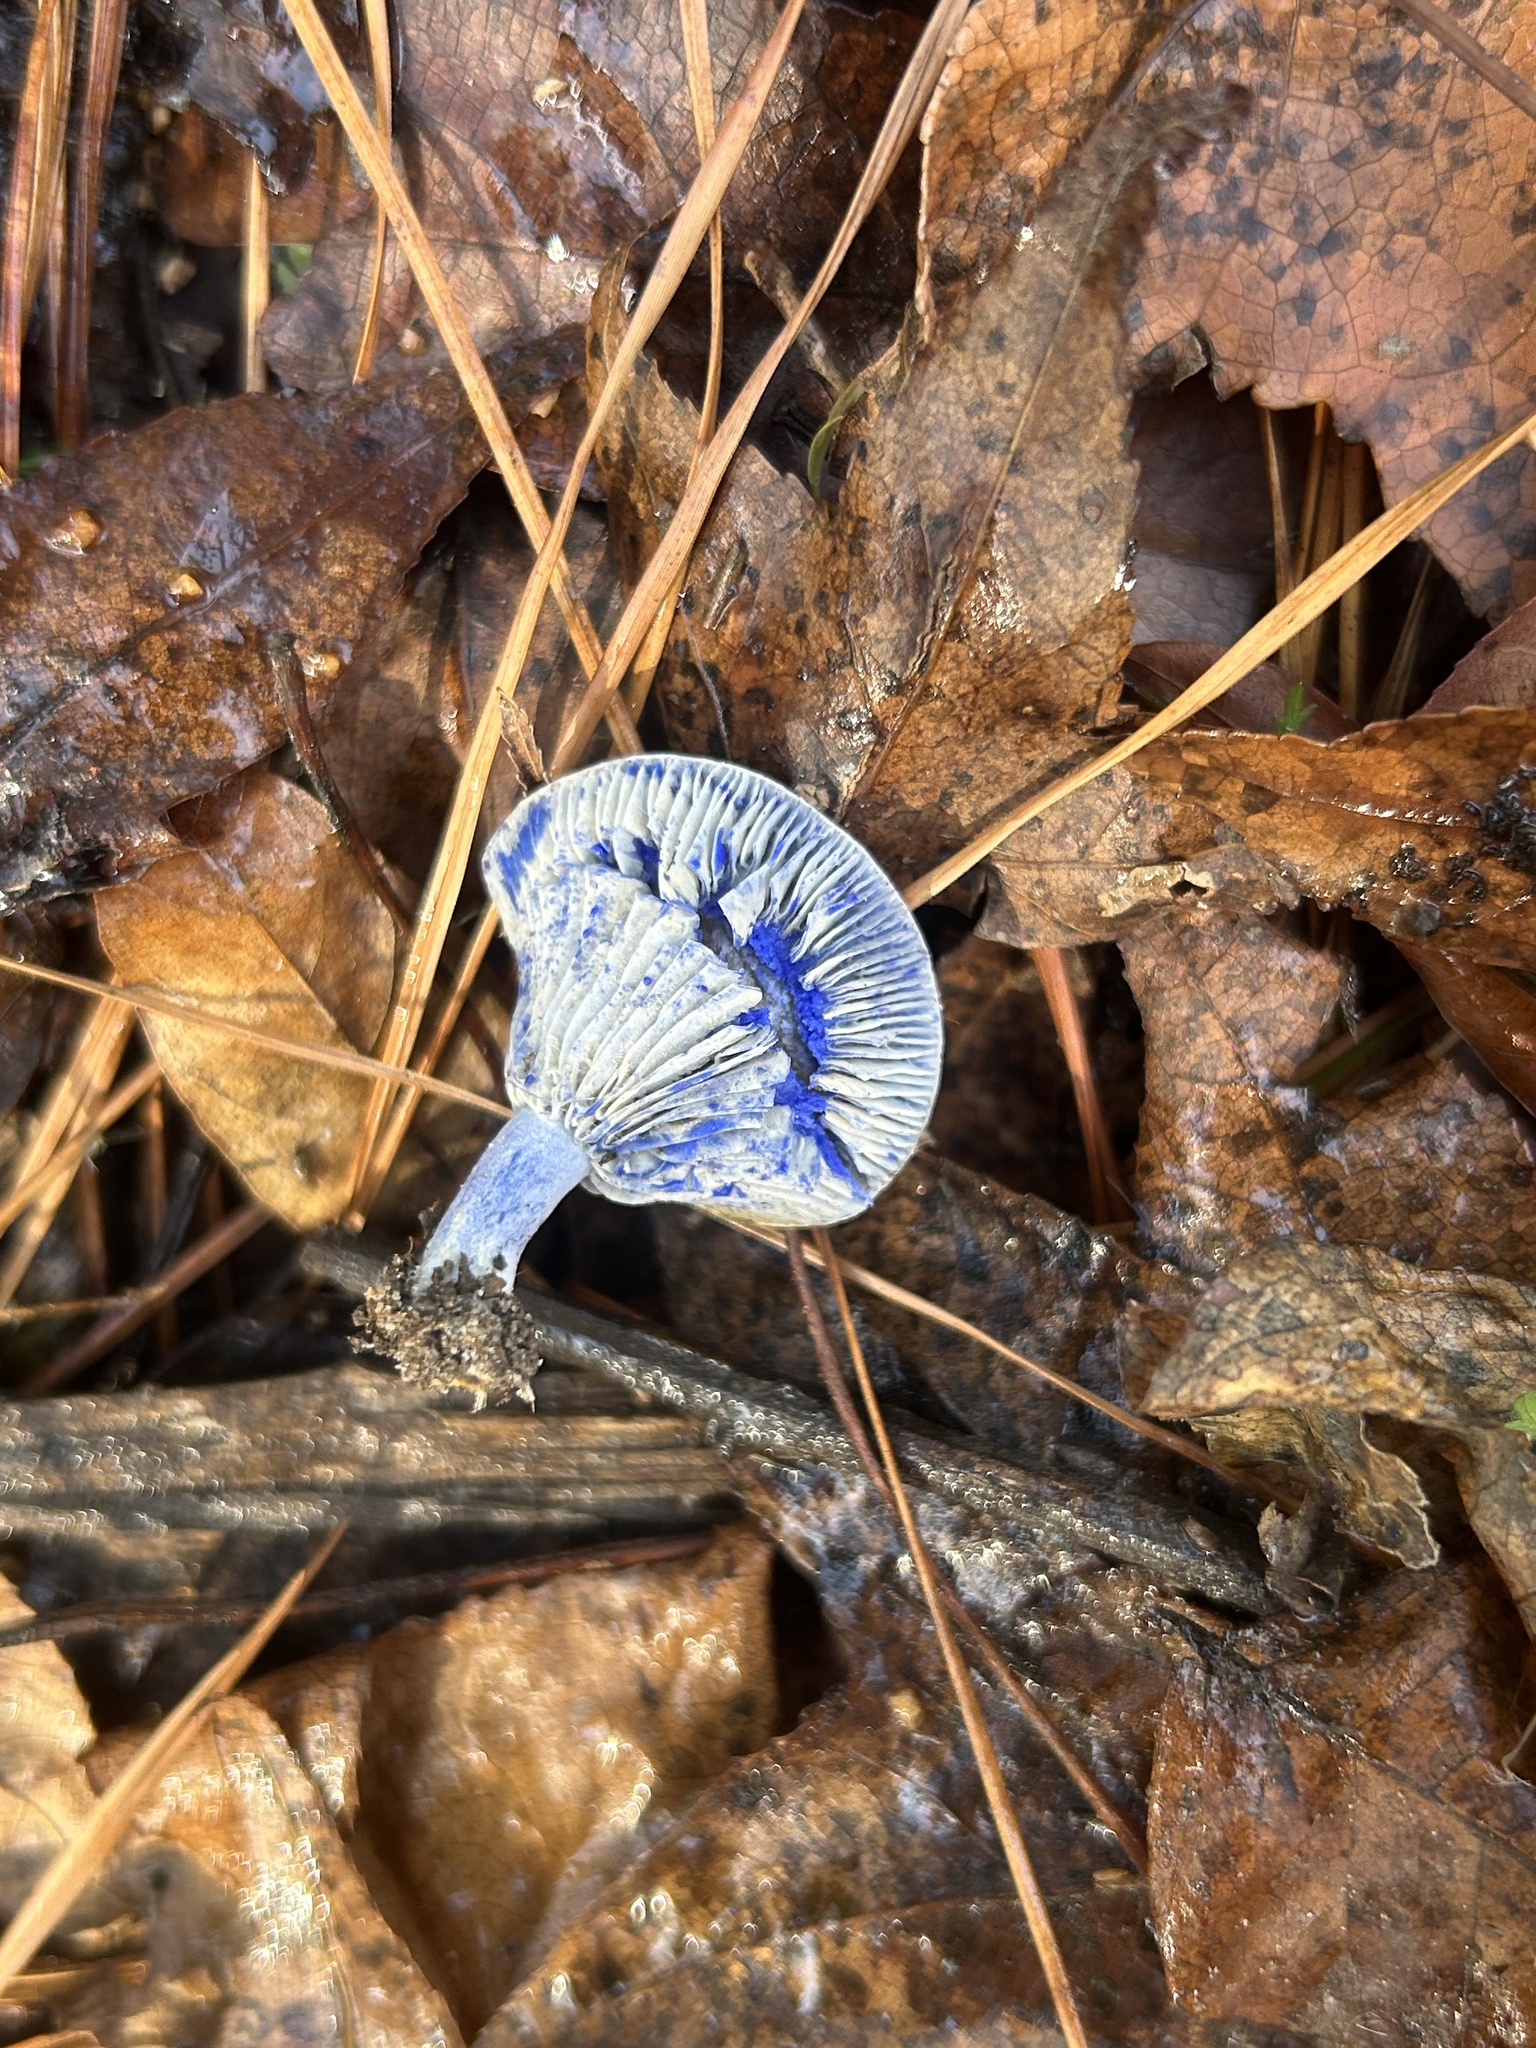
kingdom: Fungi
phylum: Basidiomycota
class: Agaricomycetes
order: Russulales
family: Russulaceae
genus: Lactarius
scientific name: Lactarius indigo
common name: Indigo milk cap
